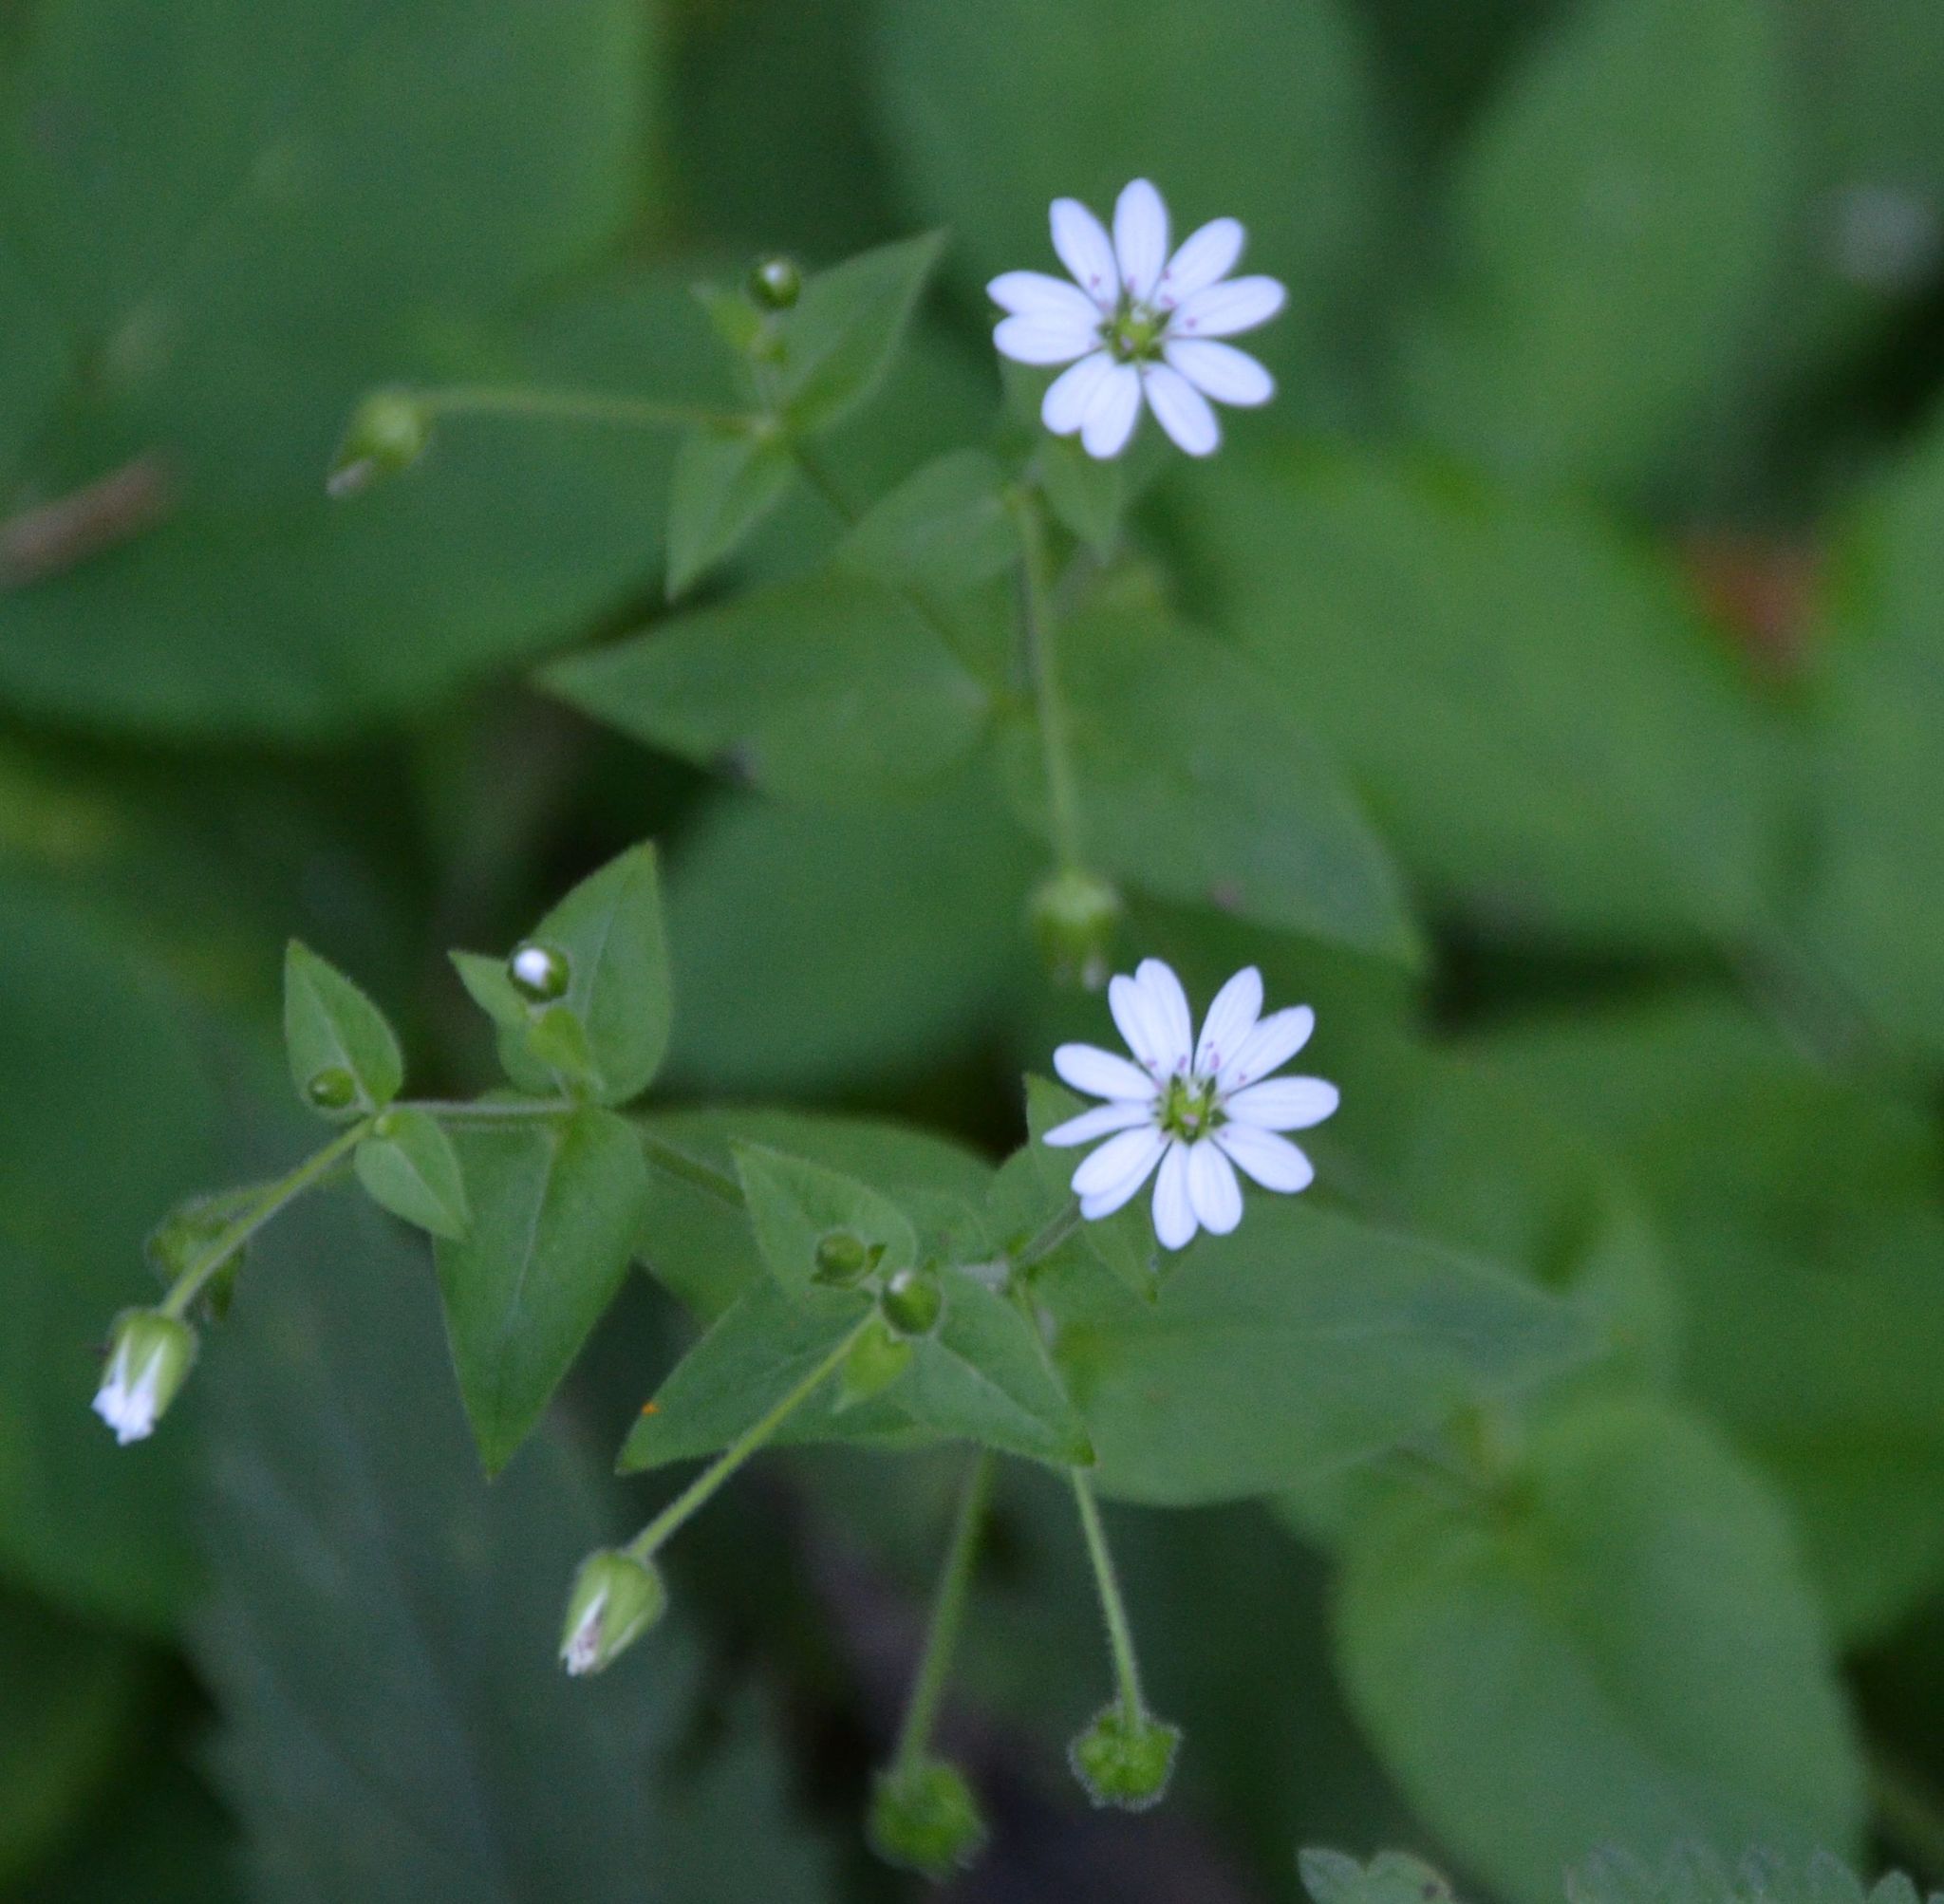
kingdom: Plantae
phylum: Tracheophyta
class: Magnoliopsida
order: Caryophyllales
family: Caryophyllaceae
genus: Stellaria
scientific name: Stellaria aquatica
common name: Water chickweed
